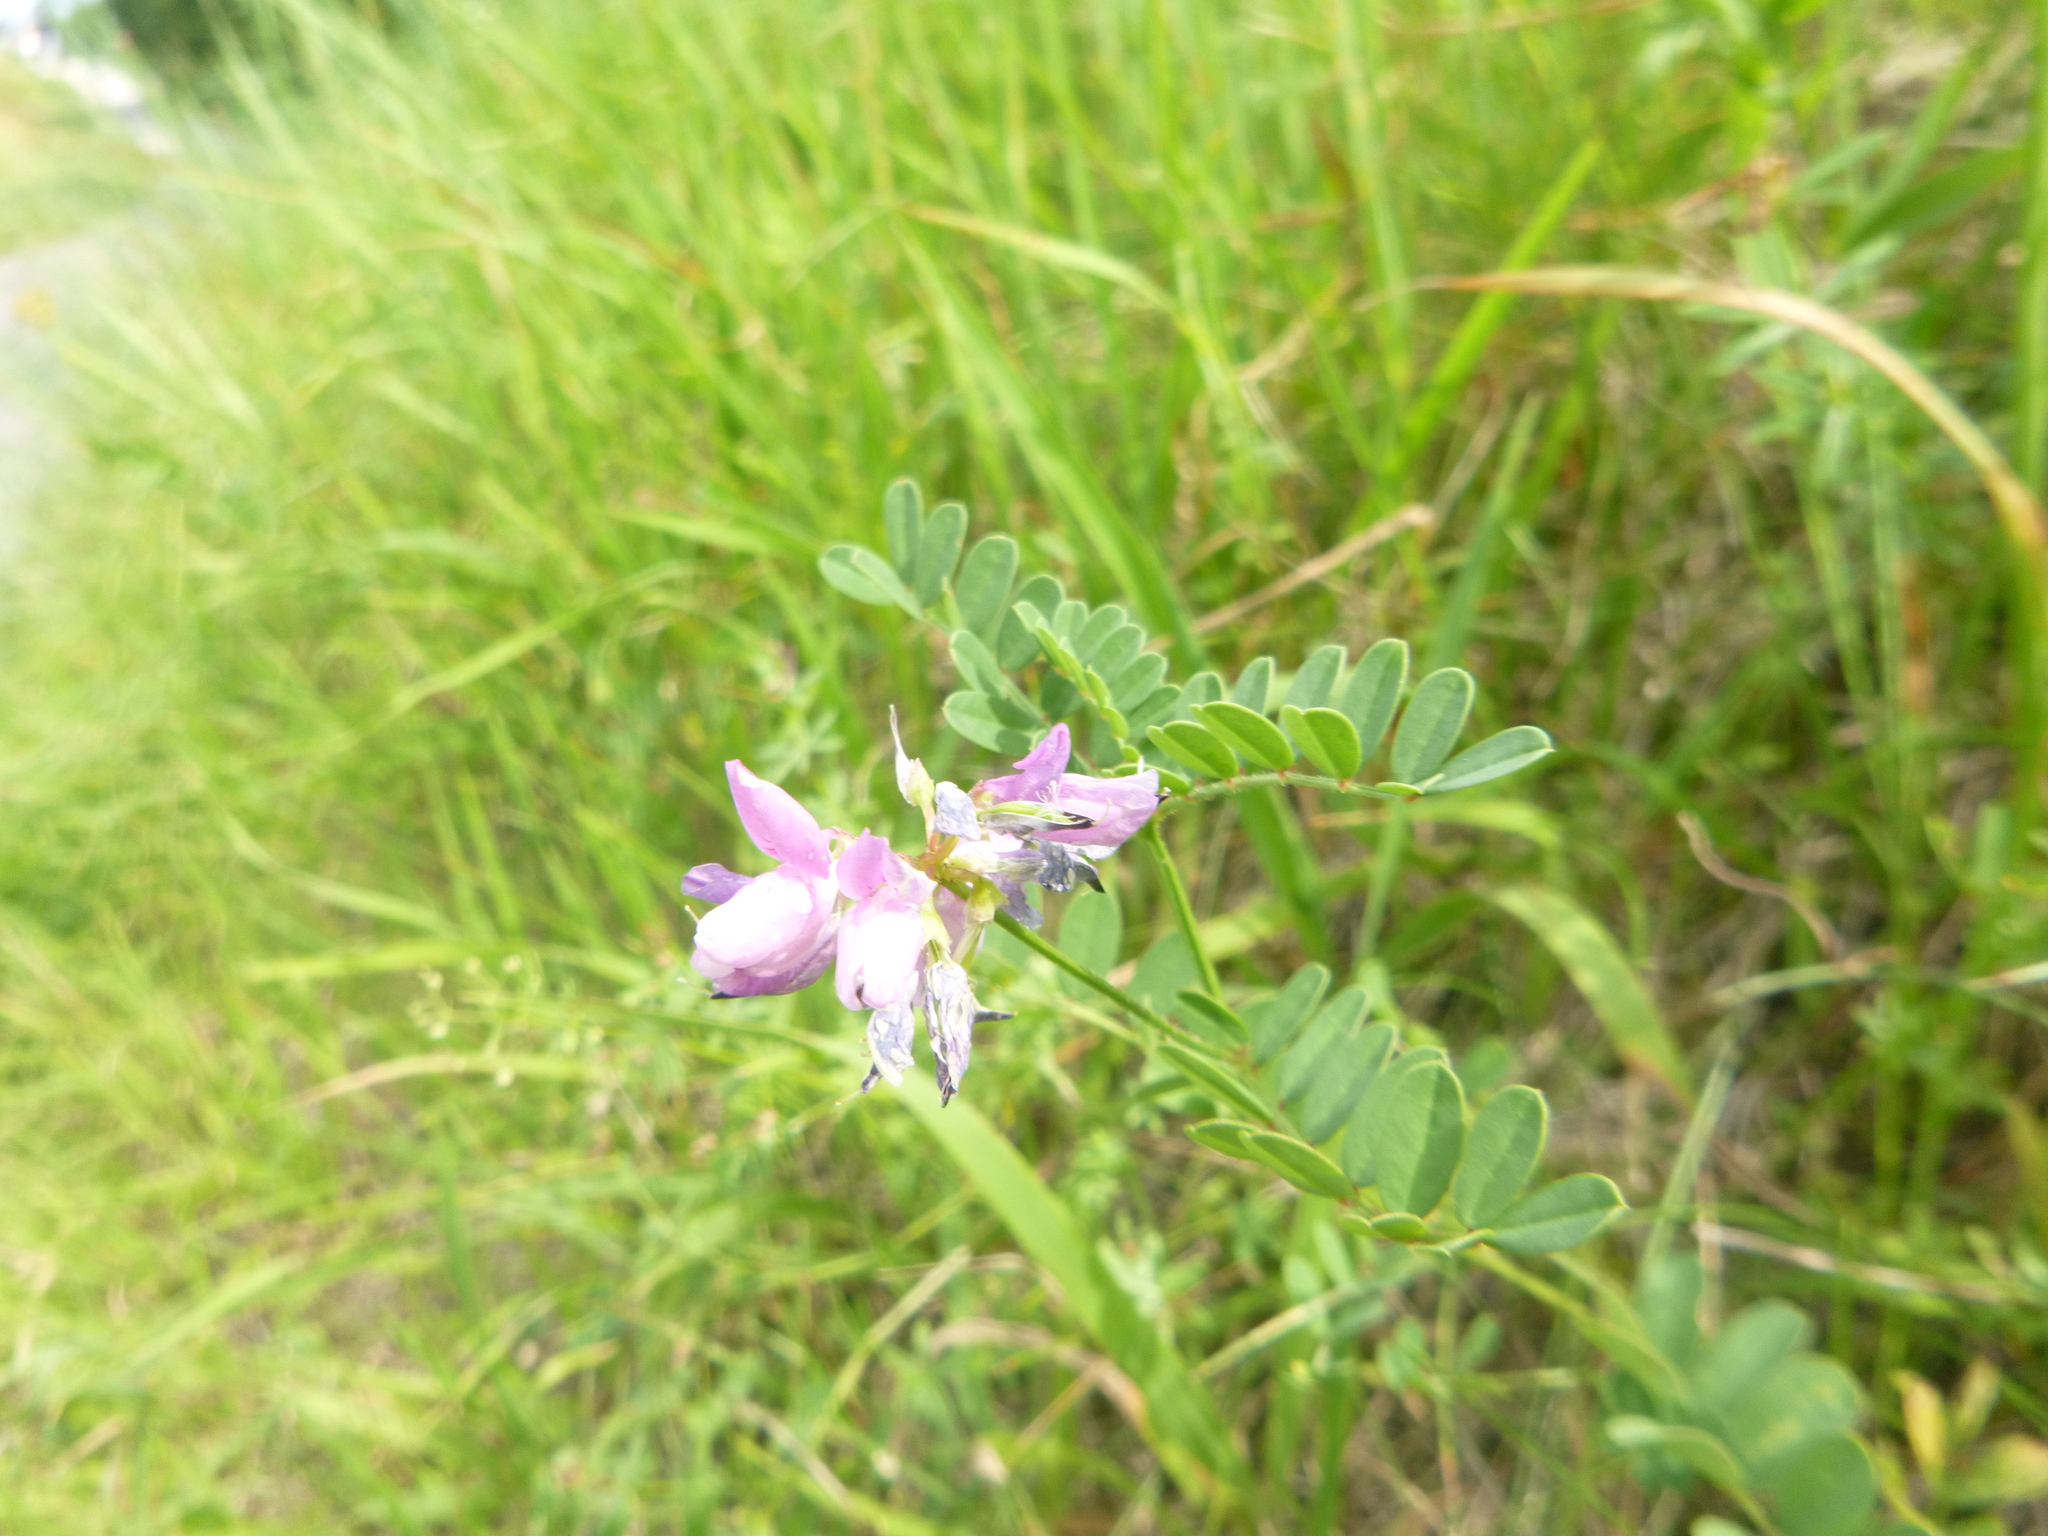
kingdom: Plantae
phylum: Tracheophyta
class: Magnoliopsida
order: Fabales
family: Fabaceae
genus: Coronilla
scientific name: Coronilla varia
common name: Crownvetch
